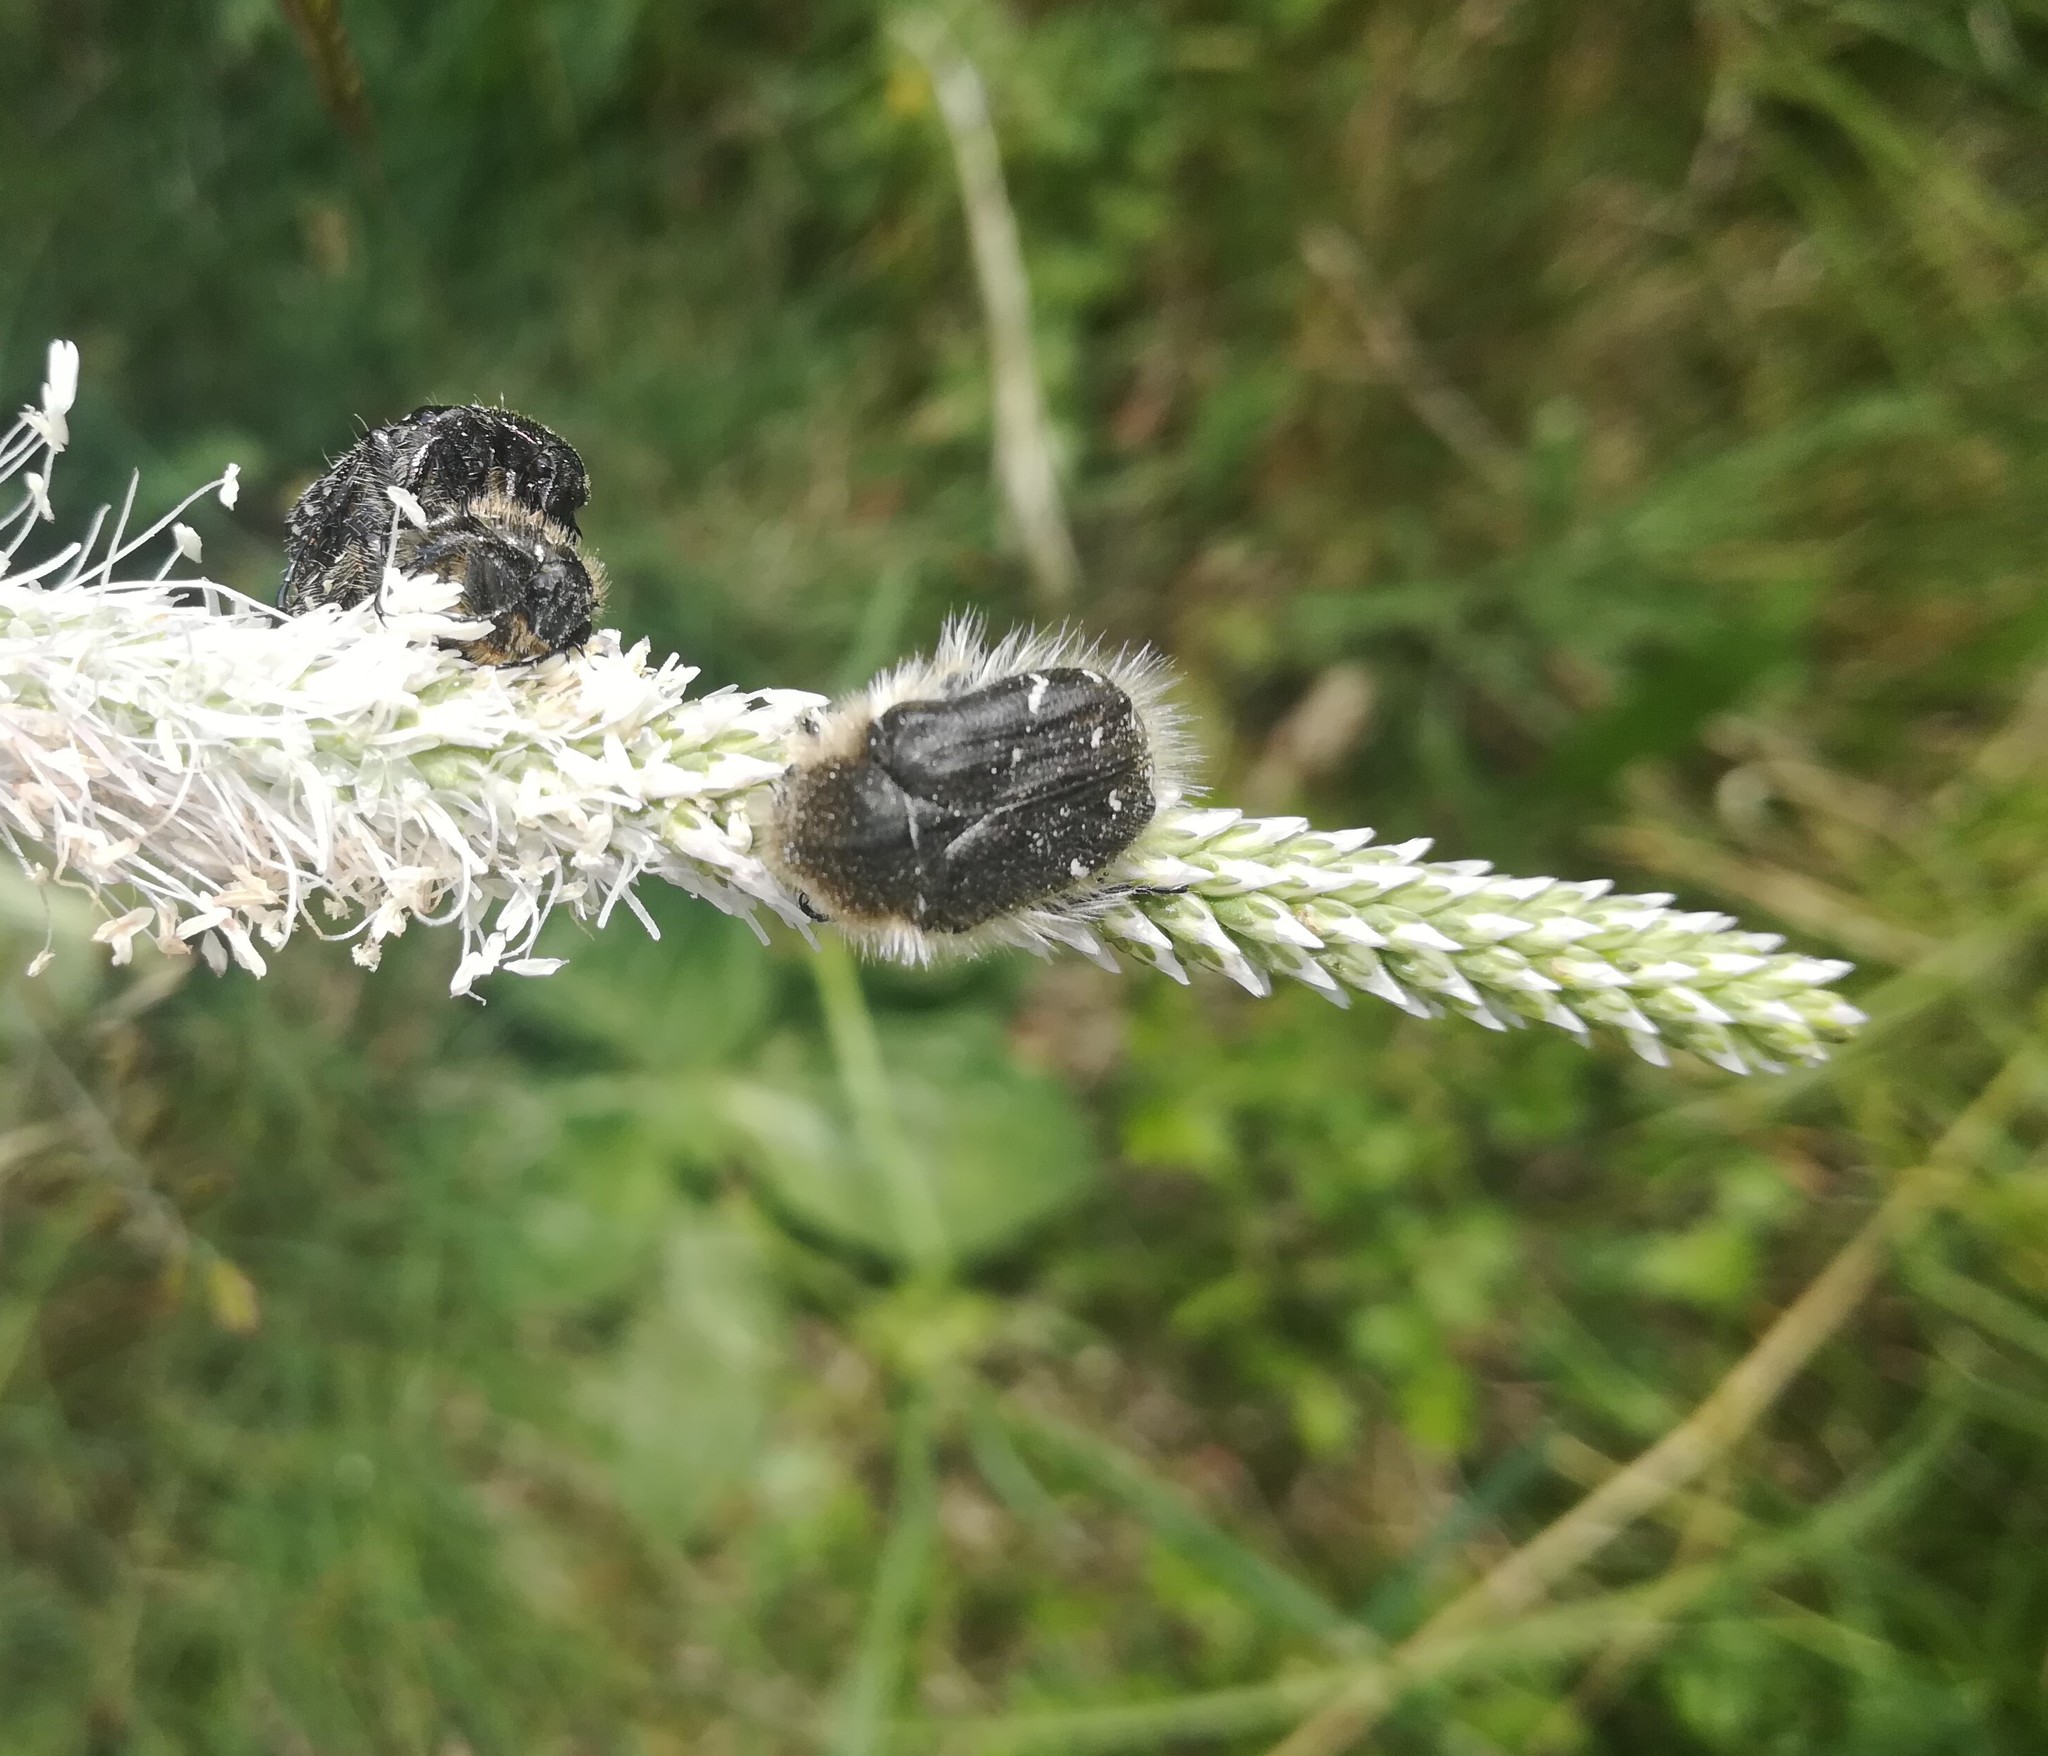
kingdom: Animalia
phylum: Arthropoda
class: Insecta
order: Coleoptera
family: Scarabaeidae
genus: Tropinota
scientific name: Tropinota hirta
